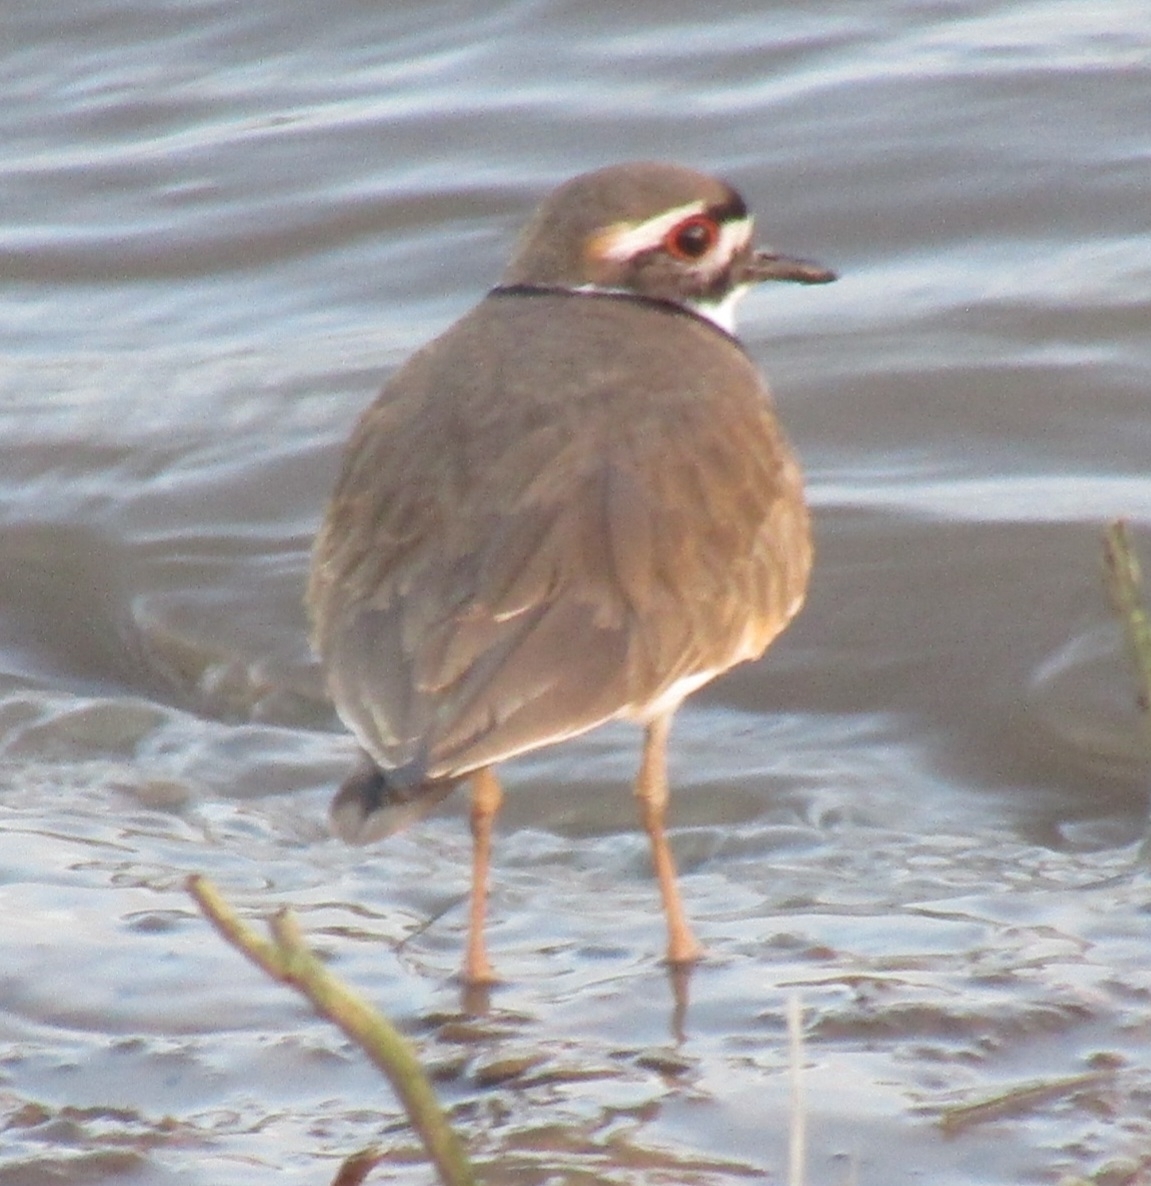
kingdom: Animalia
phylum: Chordata
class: Aves
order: Charadriiformes
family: Charadriidae
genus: Charadrius
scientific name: Charadrius vociferus
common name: Killdeer
